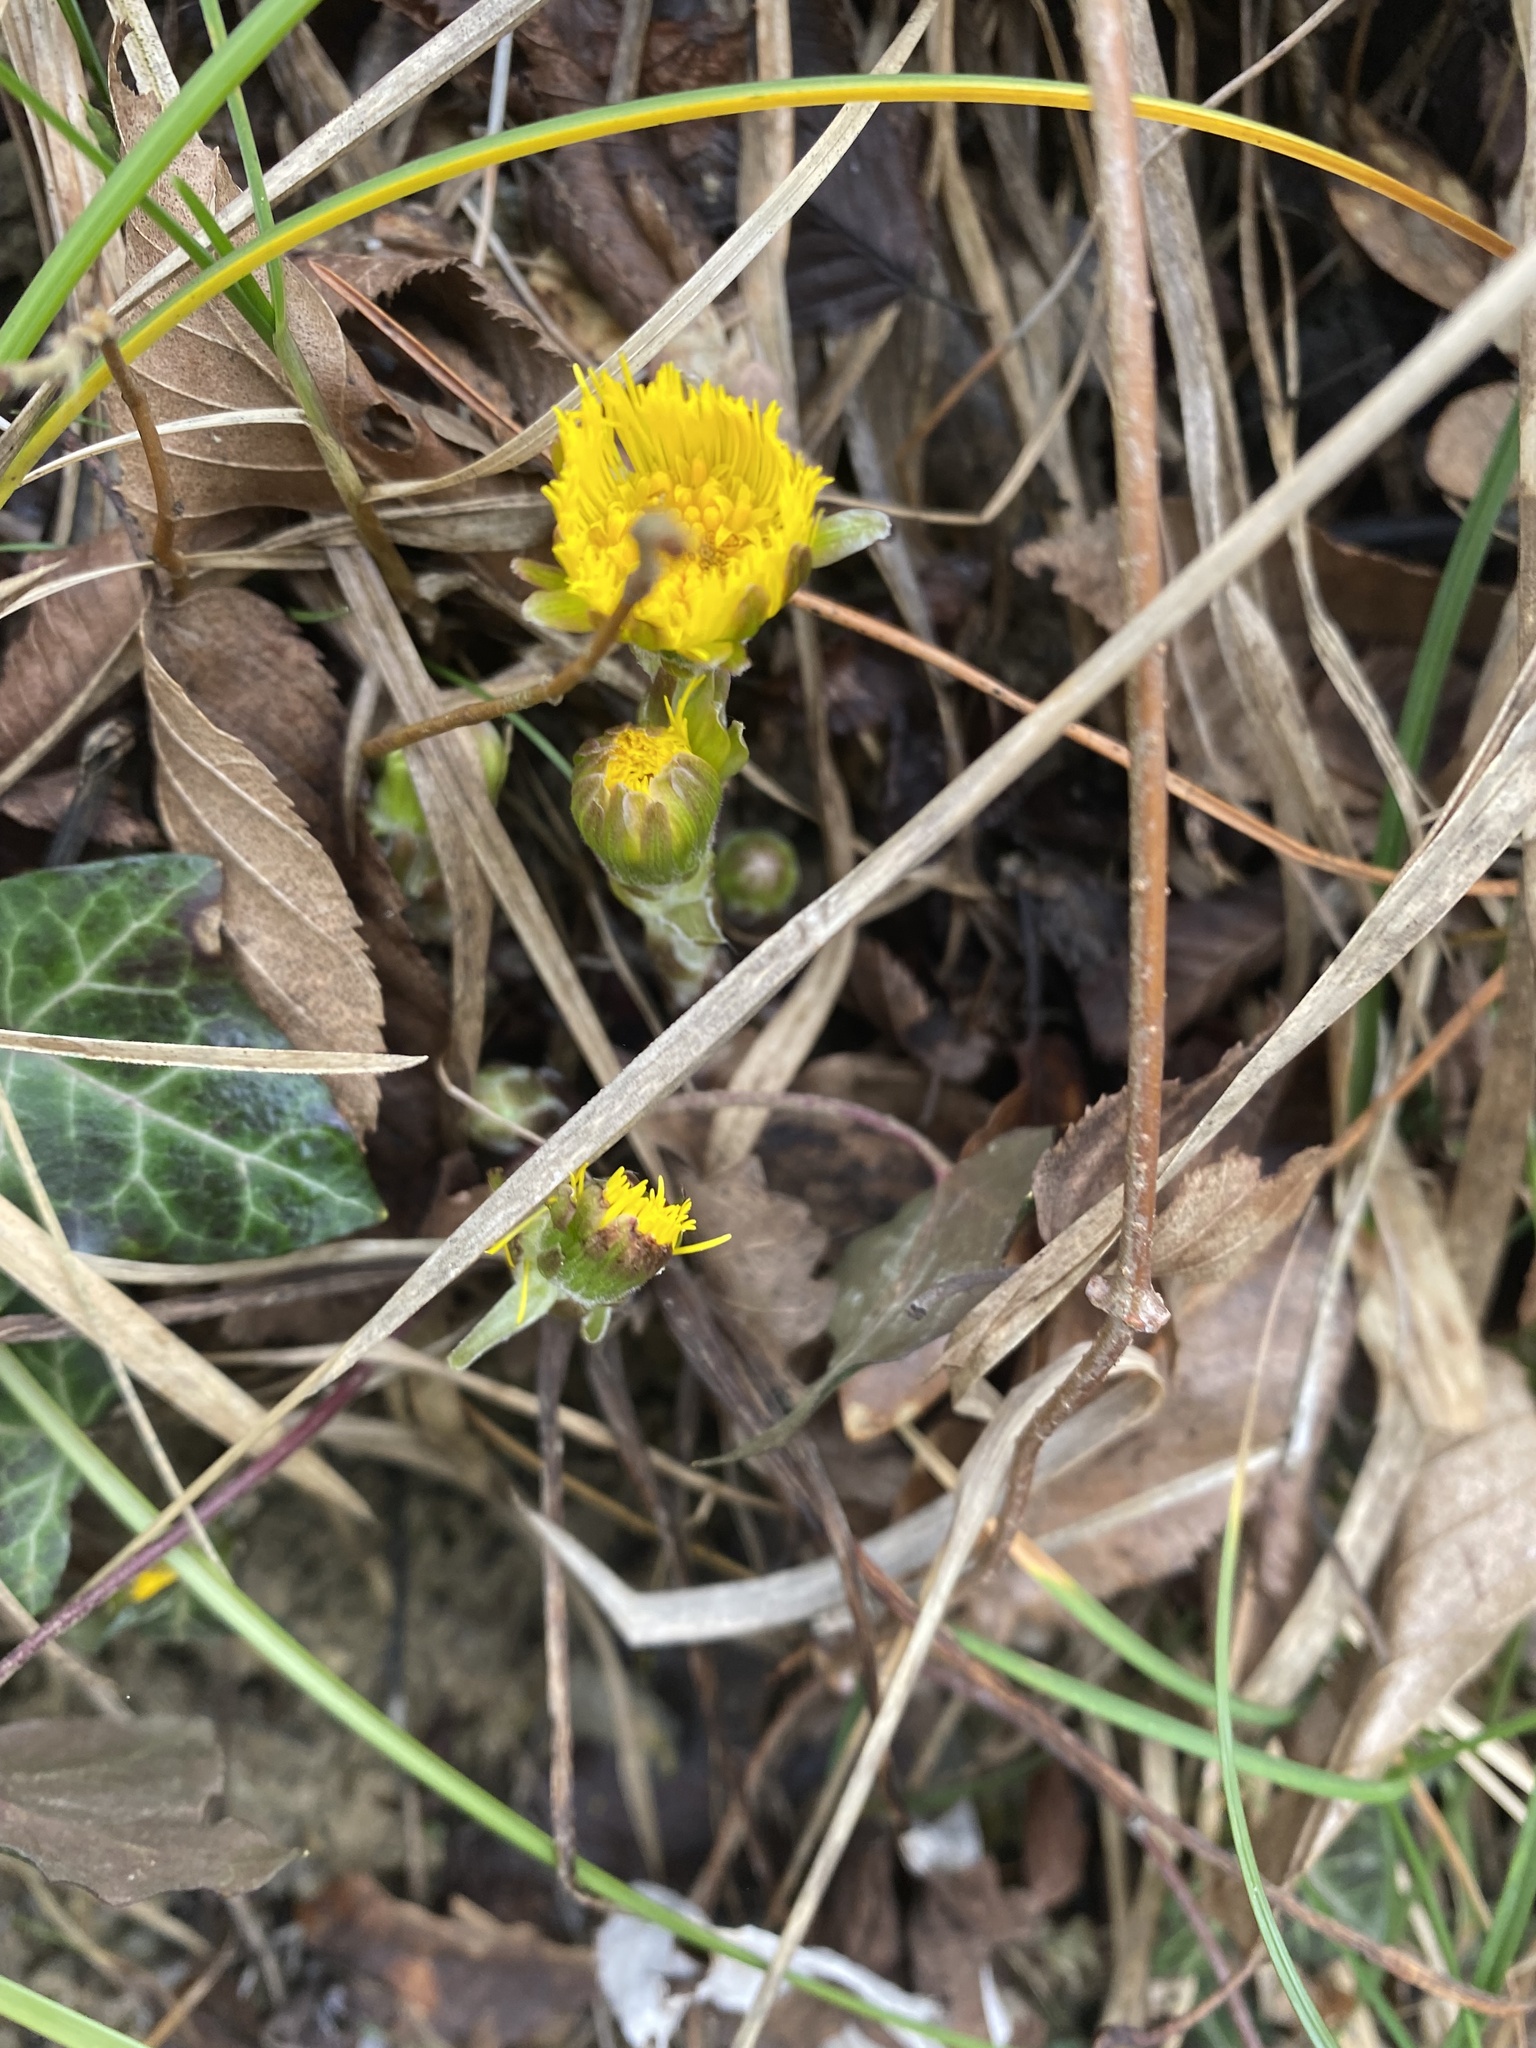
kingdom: Plantae
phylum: Tracheophyta
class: Magnoliopsida
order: Asterales
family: Asteraceae
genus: Tussilago
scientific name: Tussilago farfara
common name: Coltsfoot
